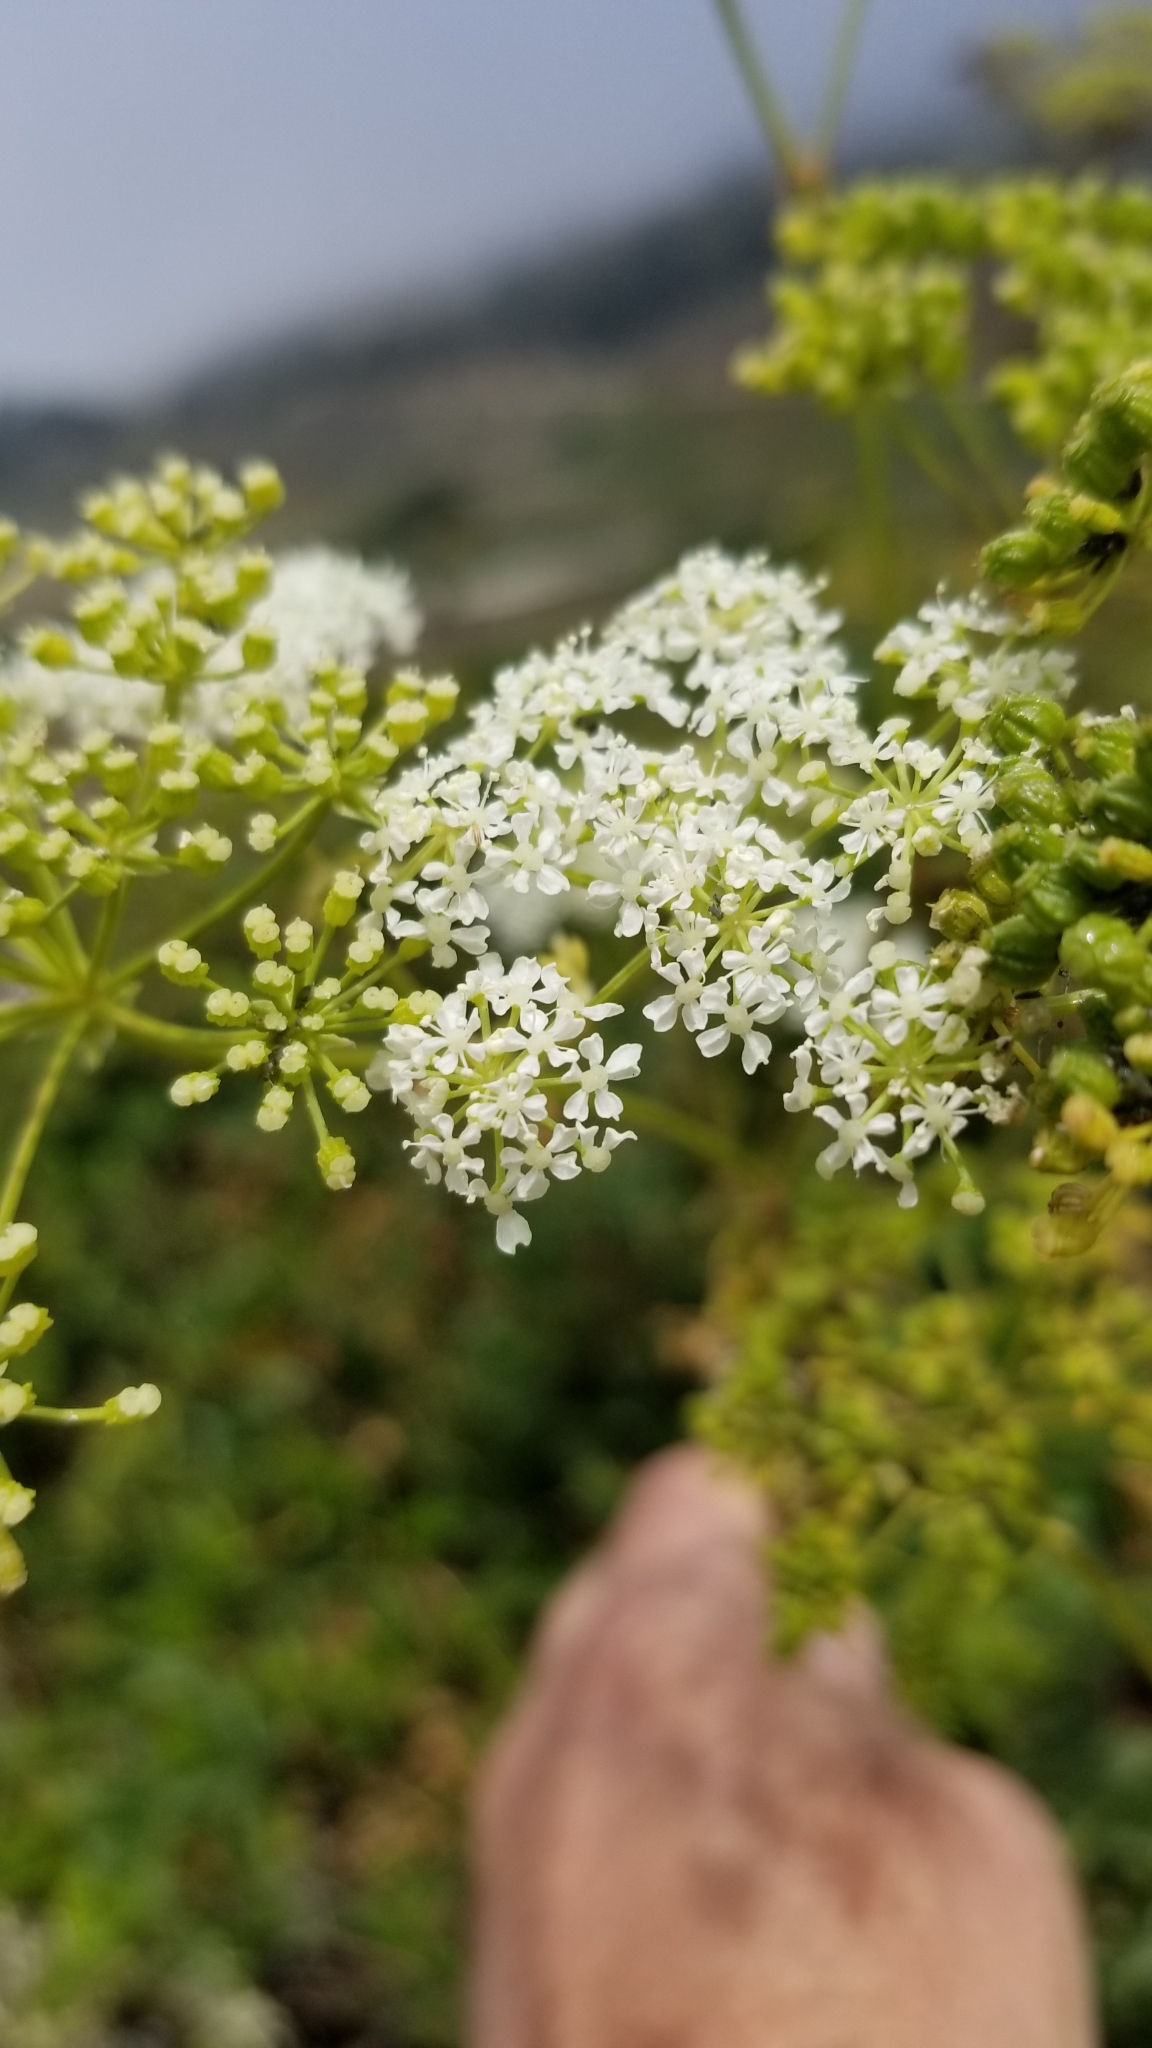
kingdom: Plantae
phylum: Tracheophyta
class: Magnoliopsida
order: Apiales
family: Apiaceae
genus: Conium
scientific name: Conium maculatum
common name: Hemlock
